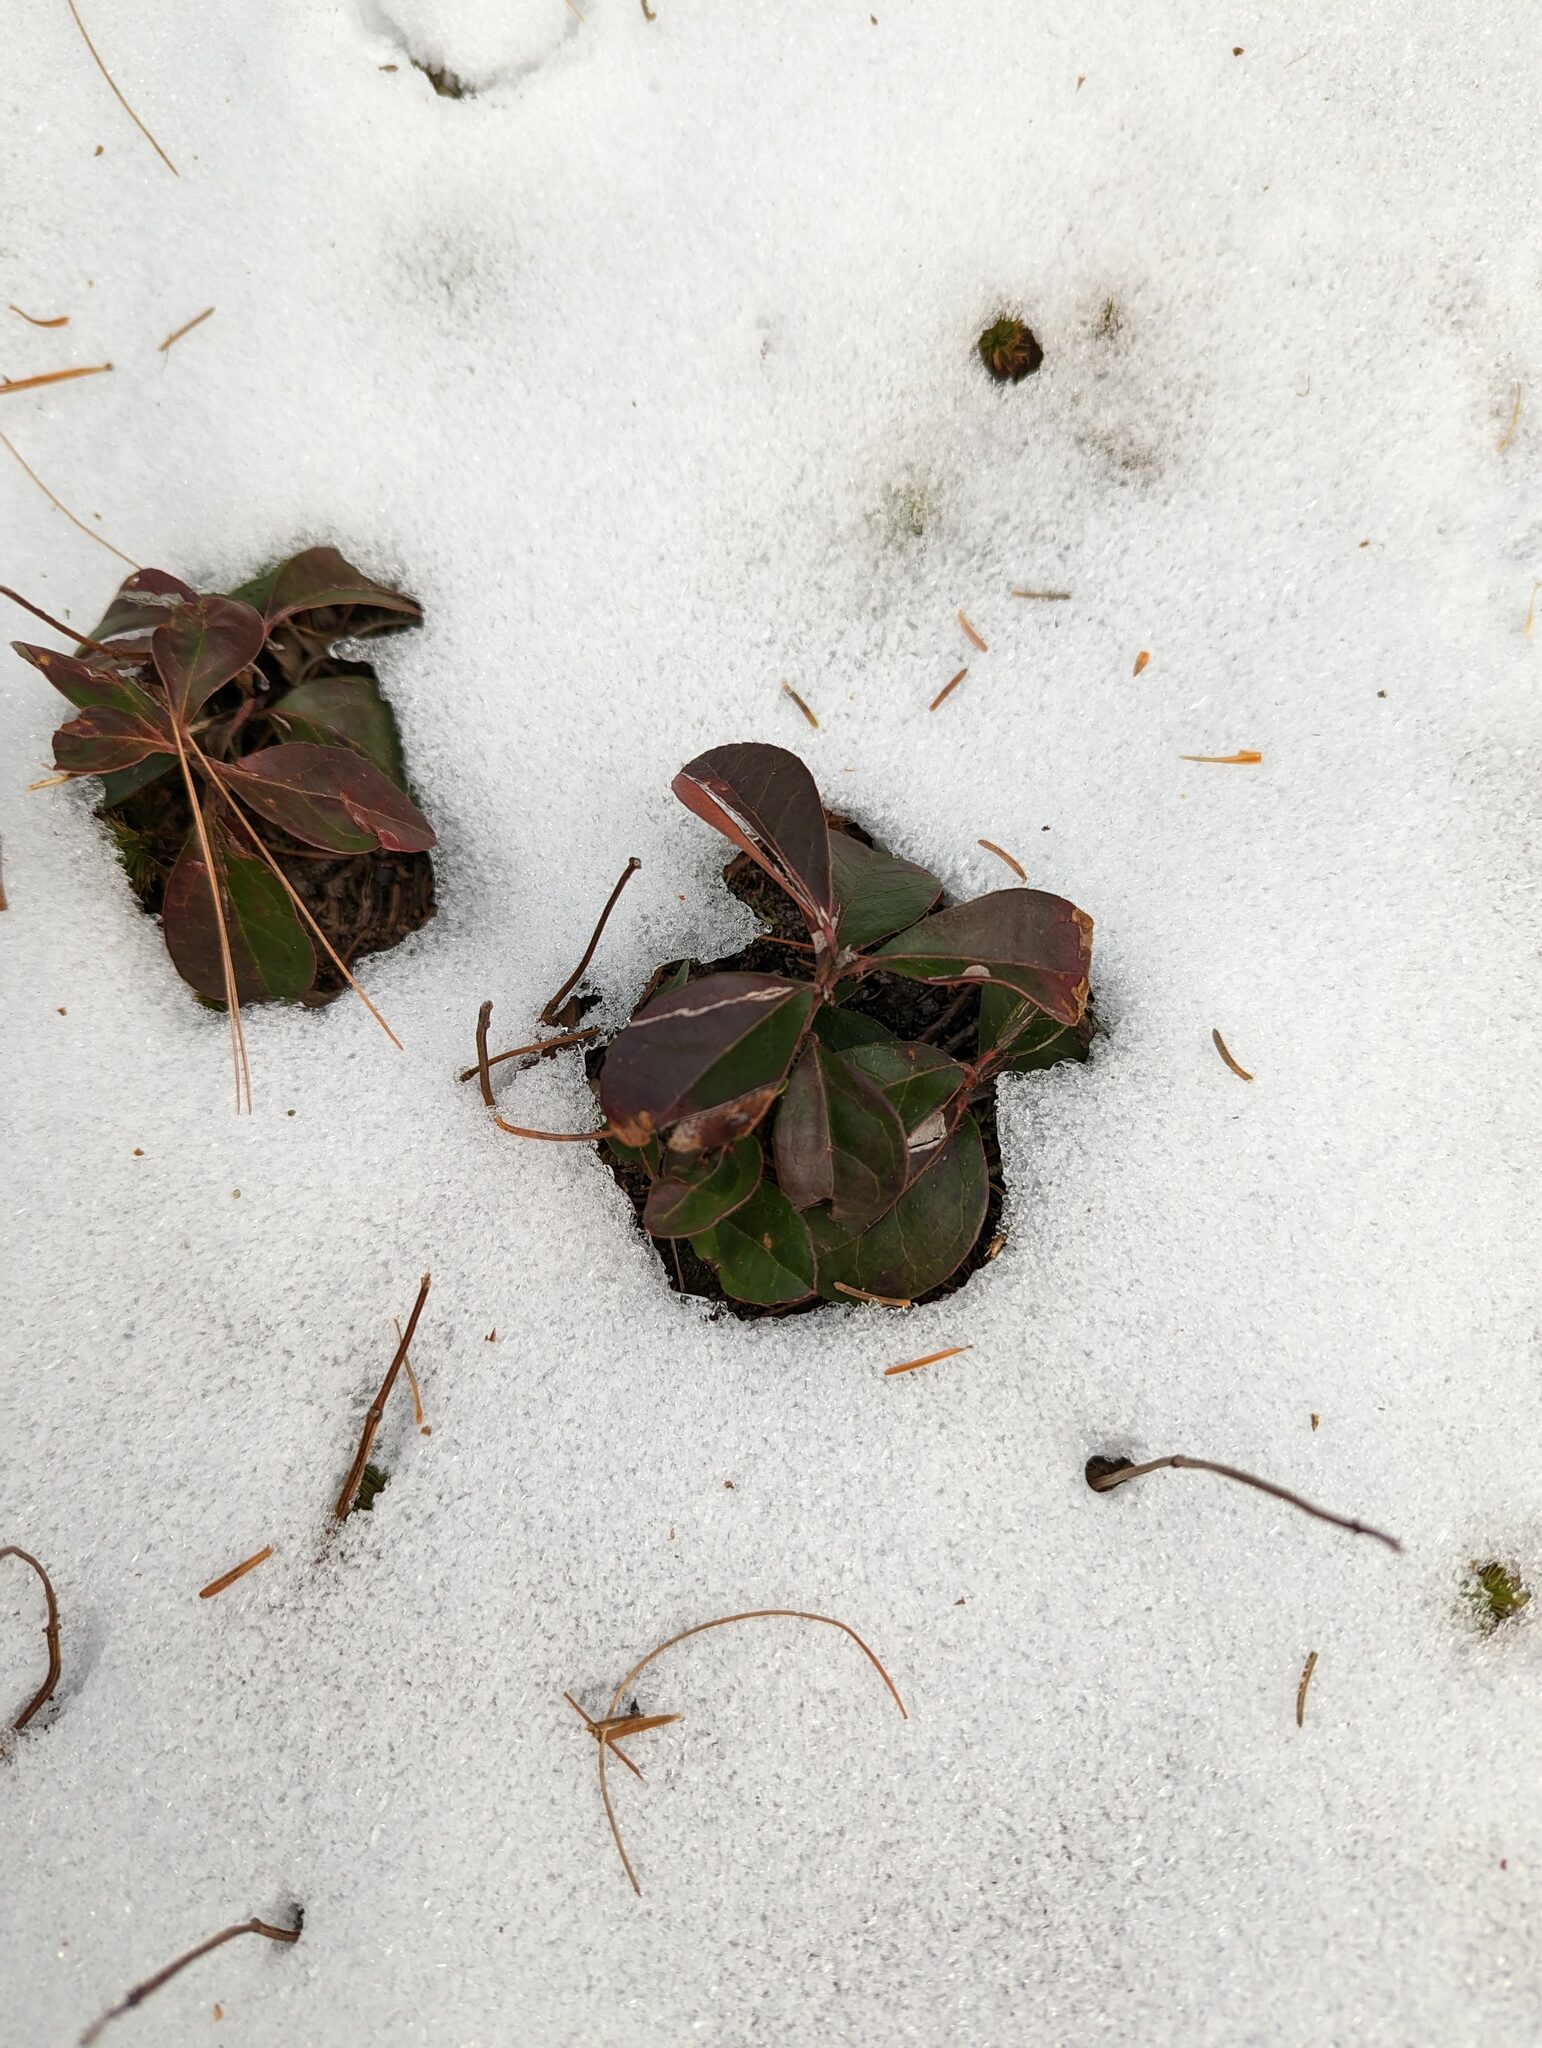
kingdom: Plantae
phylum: Tracheophyta
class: Magnoliopsida
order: Ericales
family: Ericaceae
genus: Gaultheria
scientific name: Gaultheria procumbens
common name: Checkerberry
